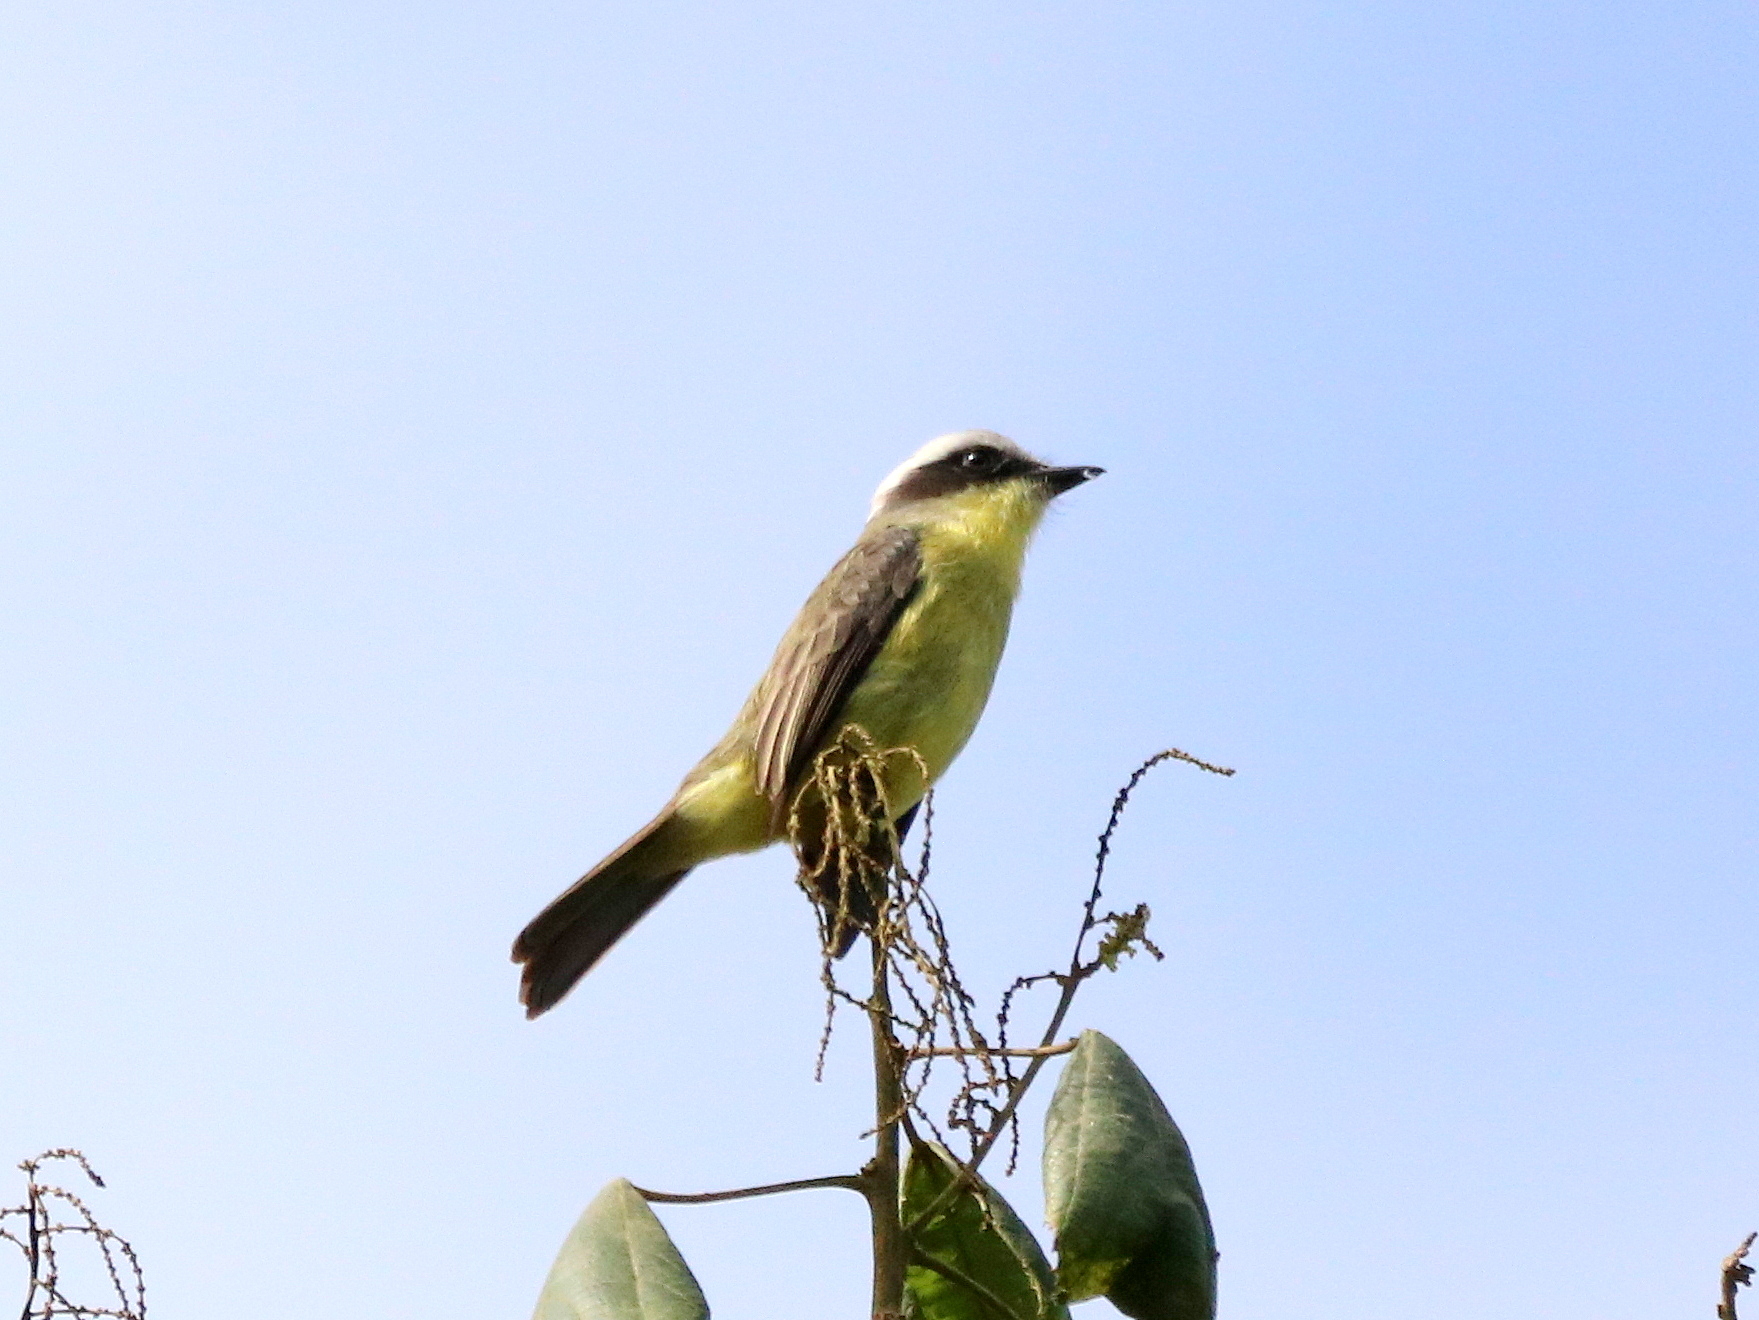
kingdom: Animalia
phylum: Chordata
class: Aves
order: Passeriformes
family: Tyrannidae
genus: Conopias
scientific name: Conopias trivirgatus
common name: Three-striped flycatcher
